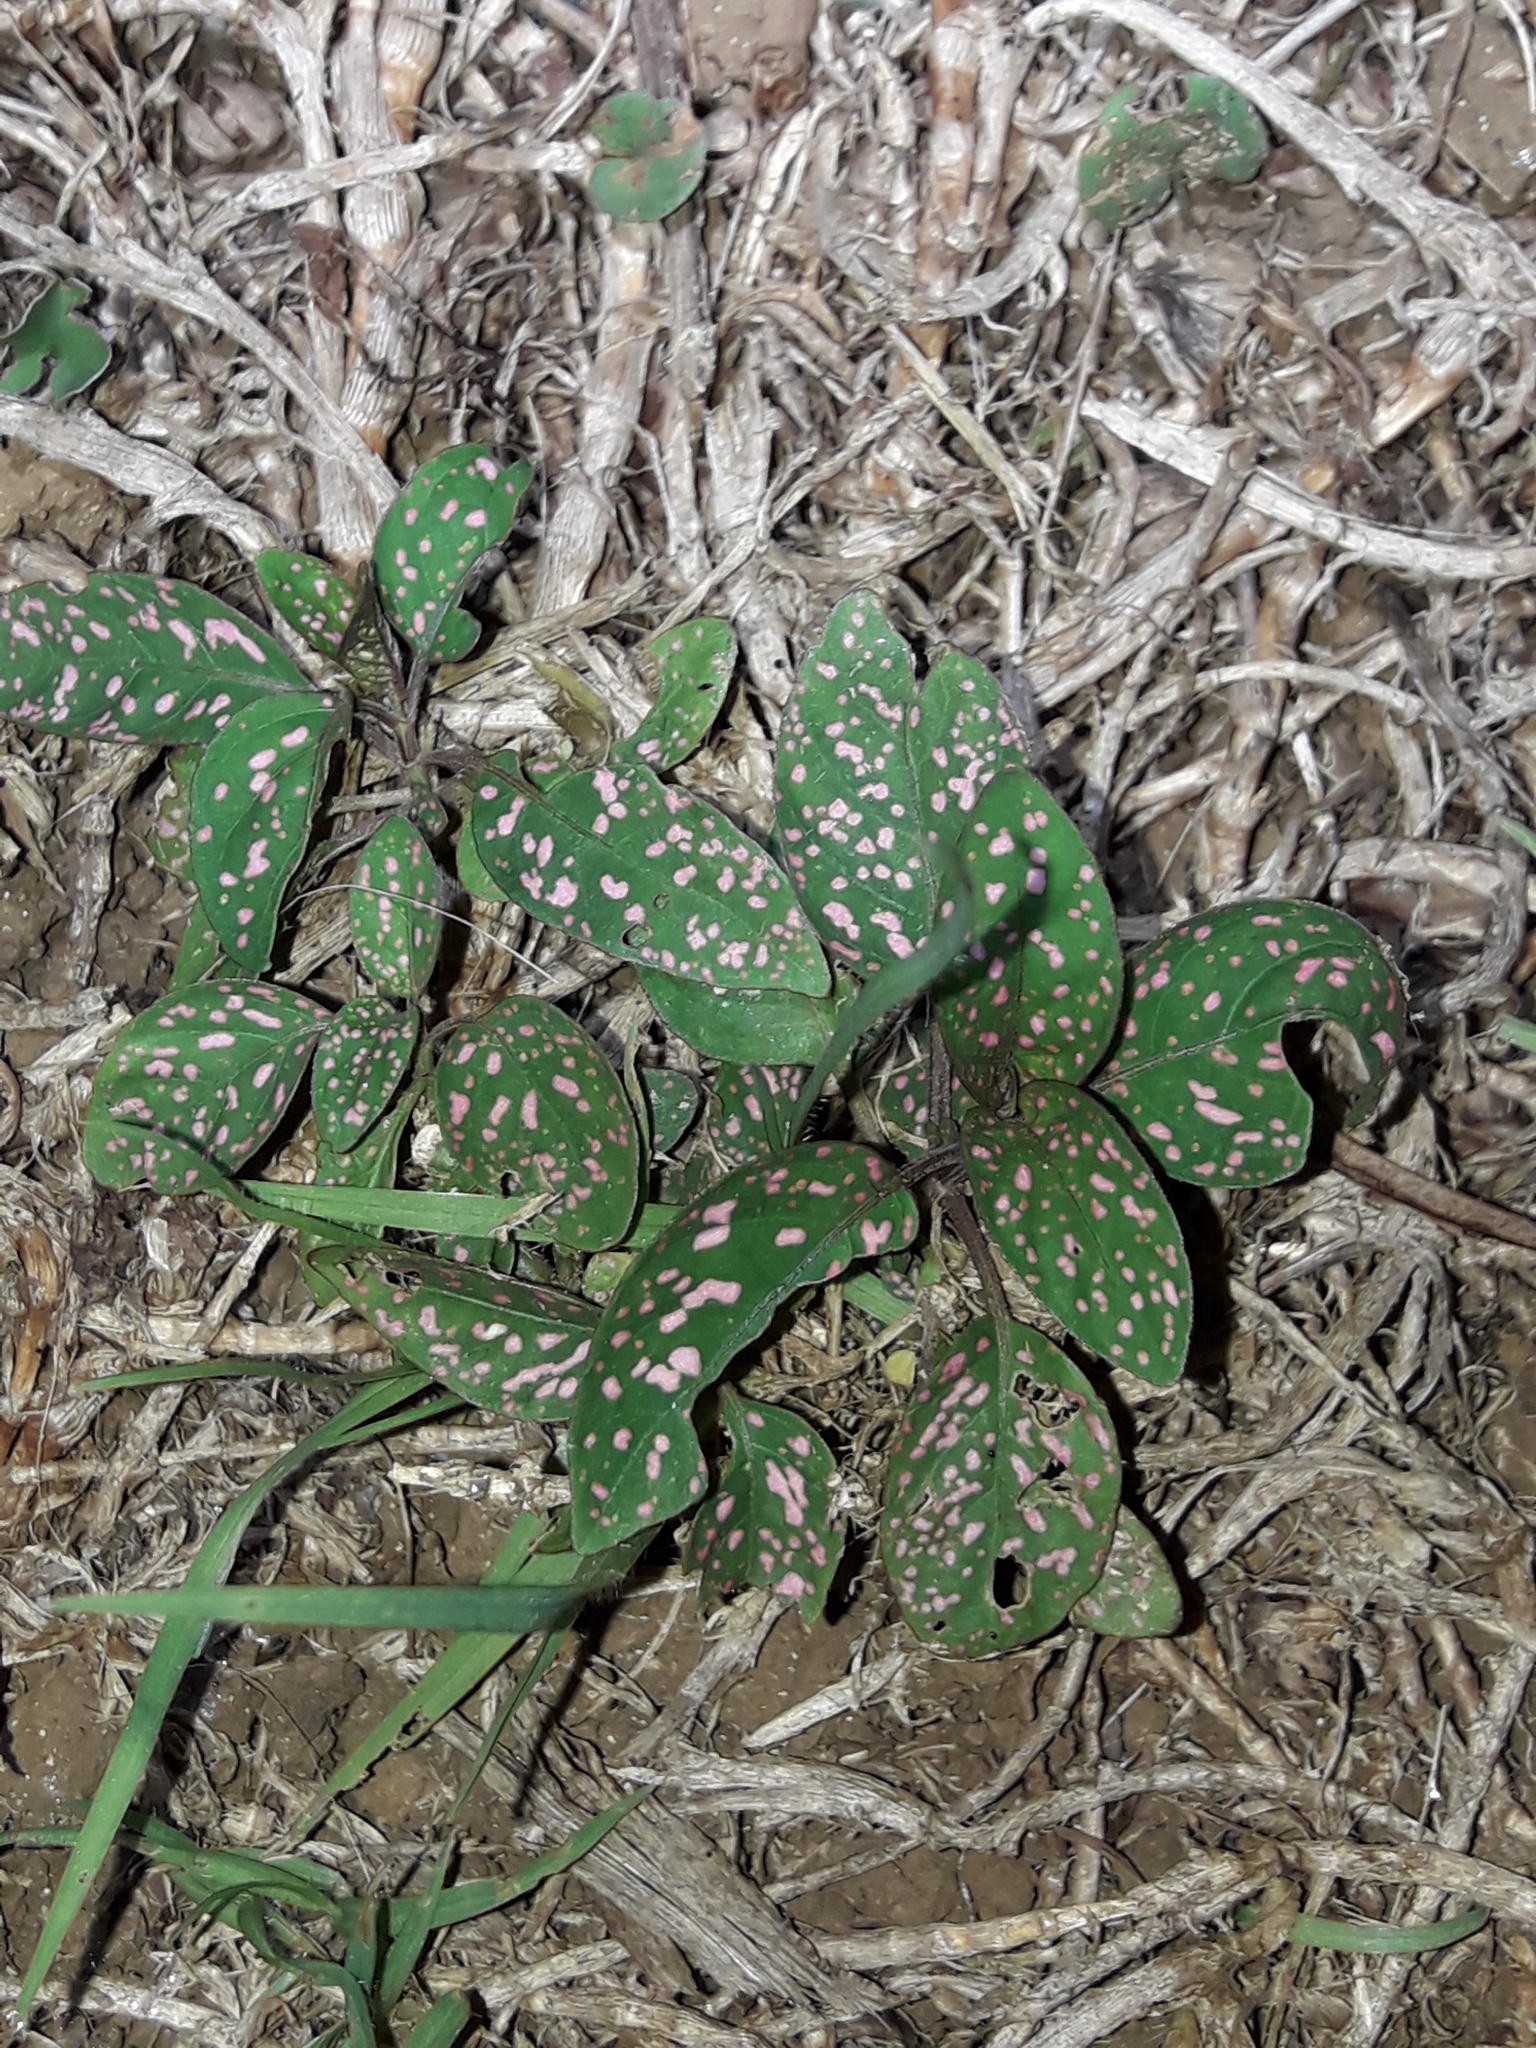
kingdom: Plantae
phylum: Tracheophyta
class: Magnoliopsida
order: Lamiales
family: Acanthaceae
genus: Hypoestes
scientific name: Hypoestes phyllostachya
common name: Polkadot-plant
